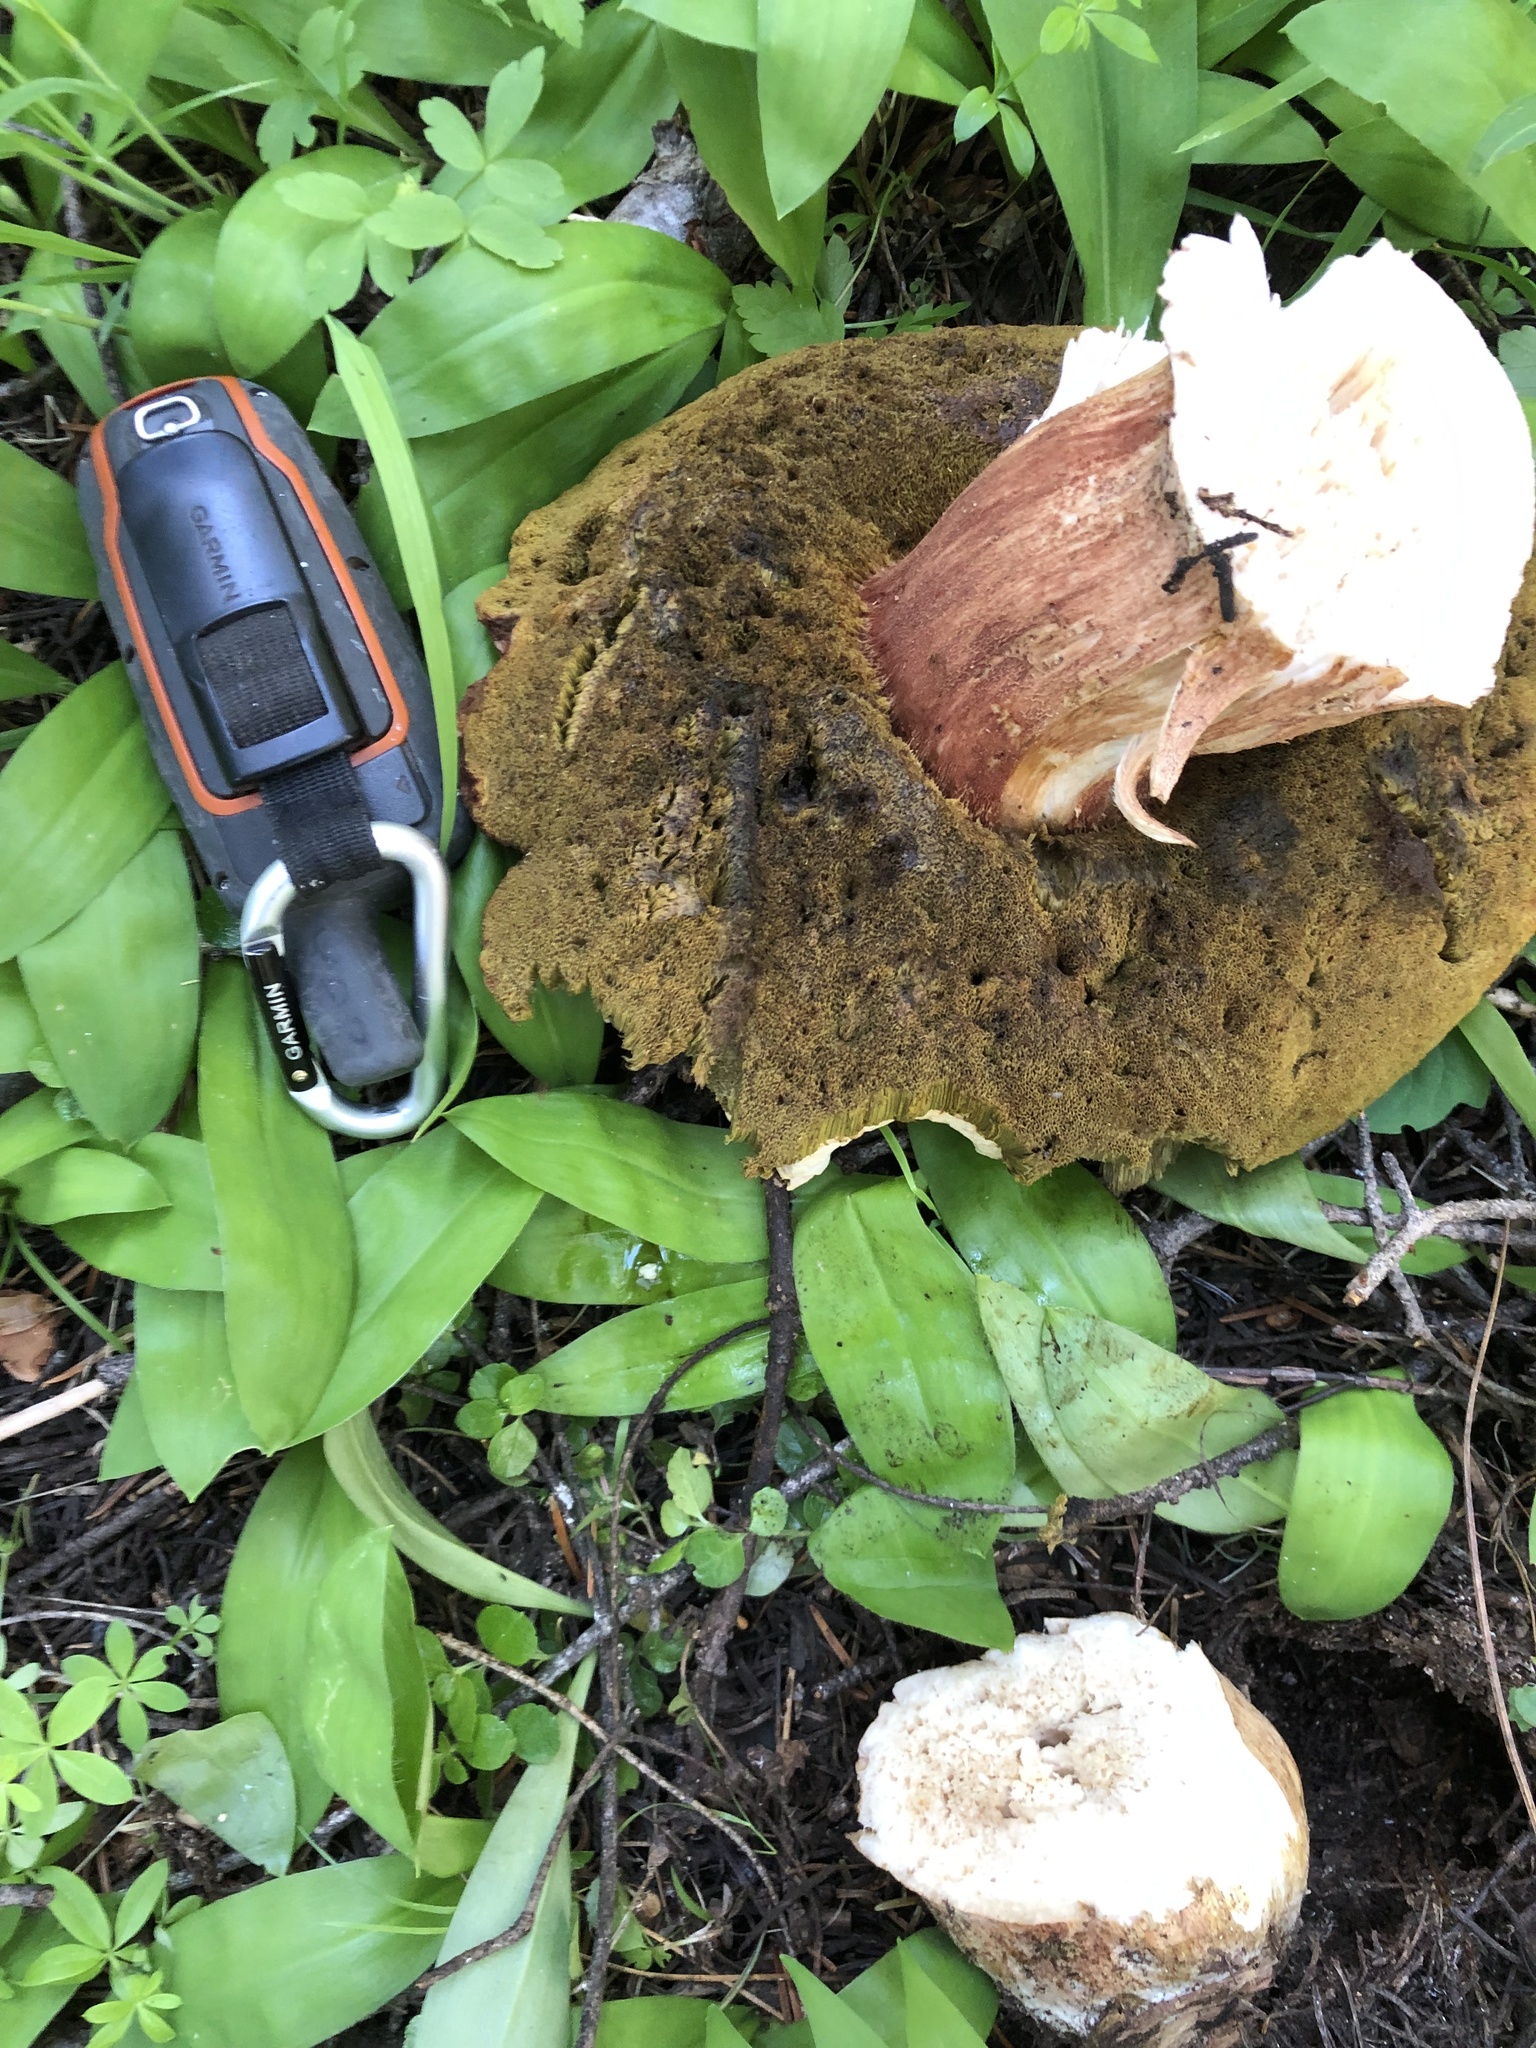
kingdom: Fungi
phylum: Basidiomycota
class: Agaricomycetes
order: Boletales
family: Boletaceae
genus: Boletus
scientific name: Boletus rex-veris
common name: Spring king
